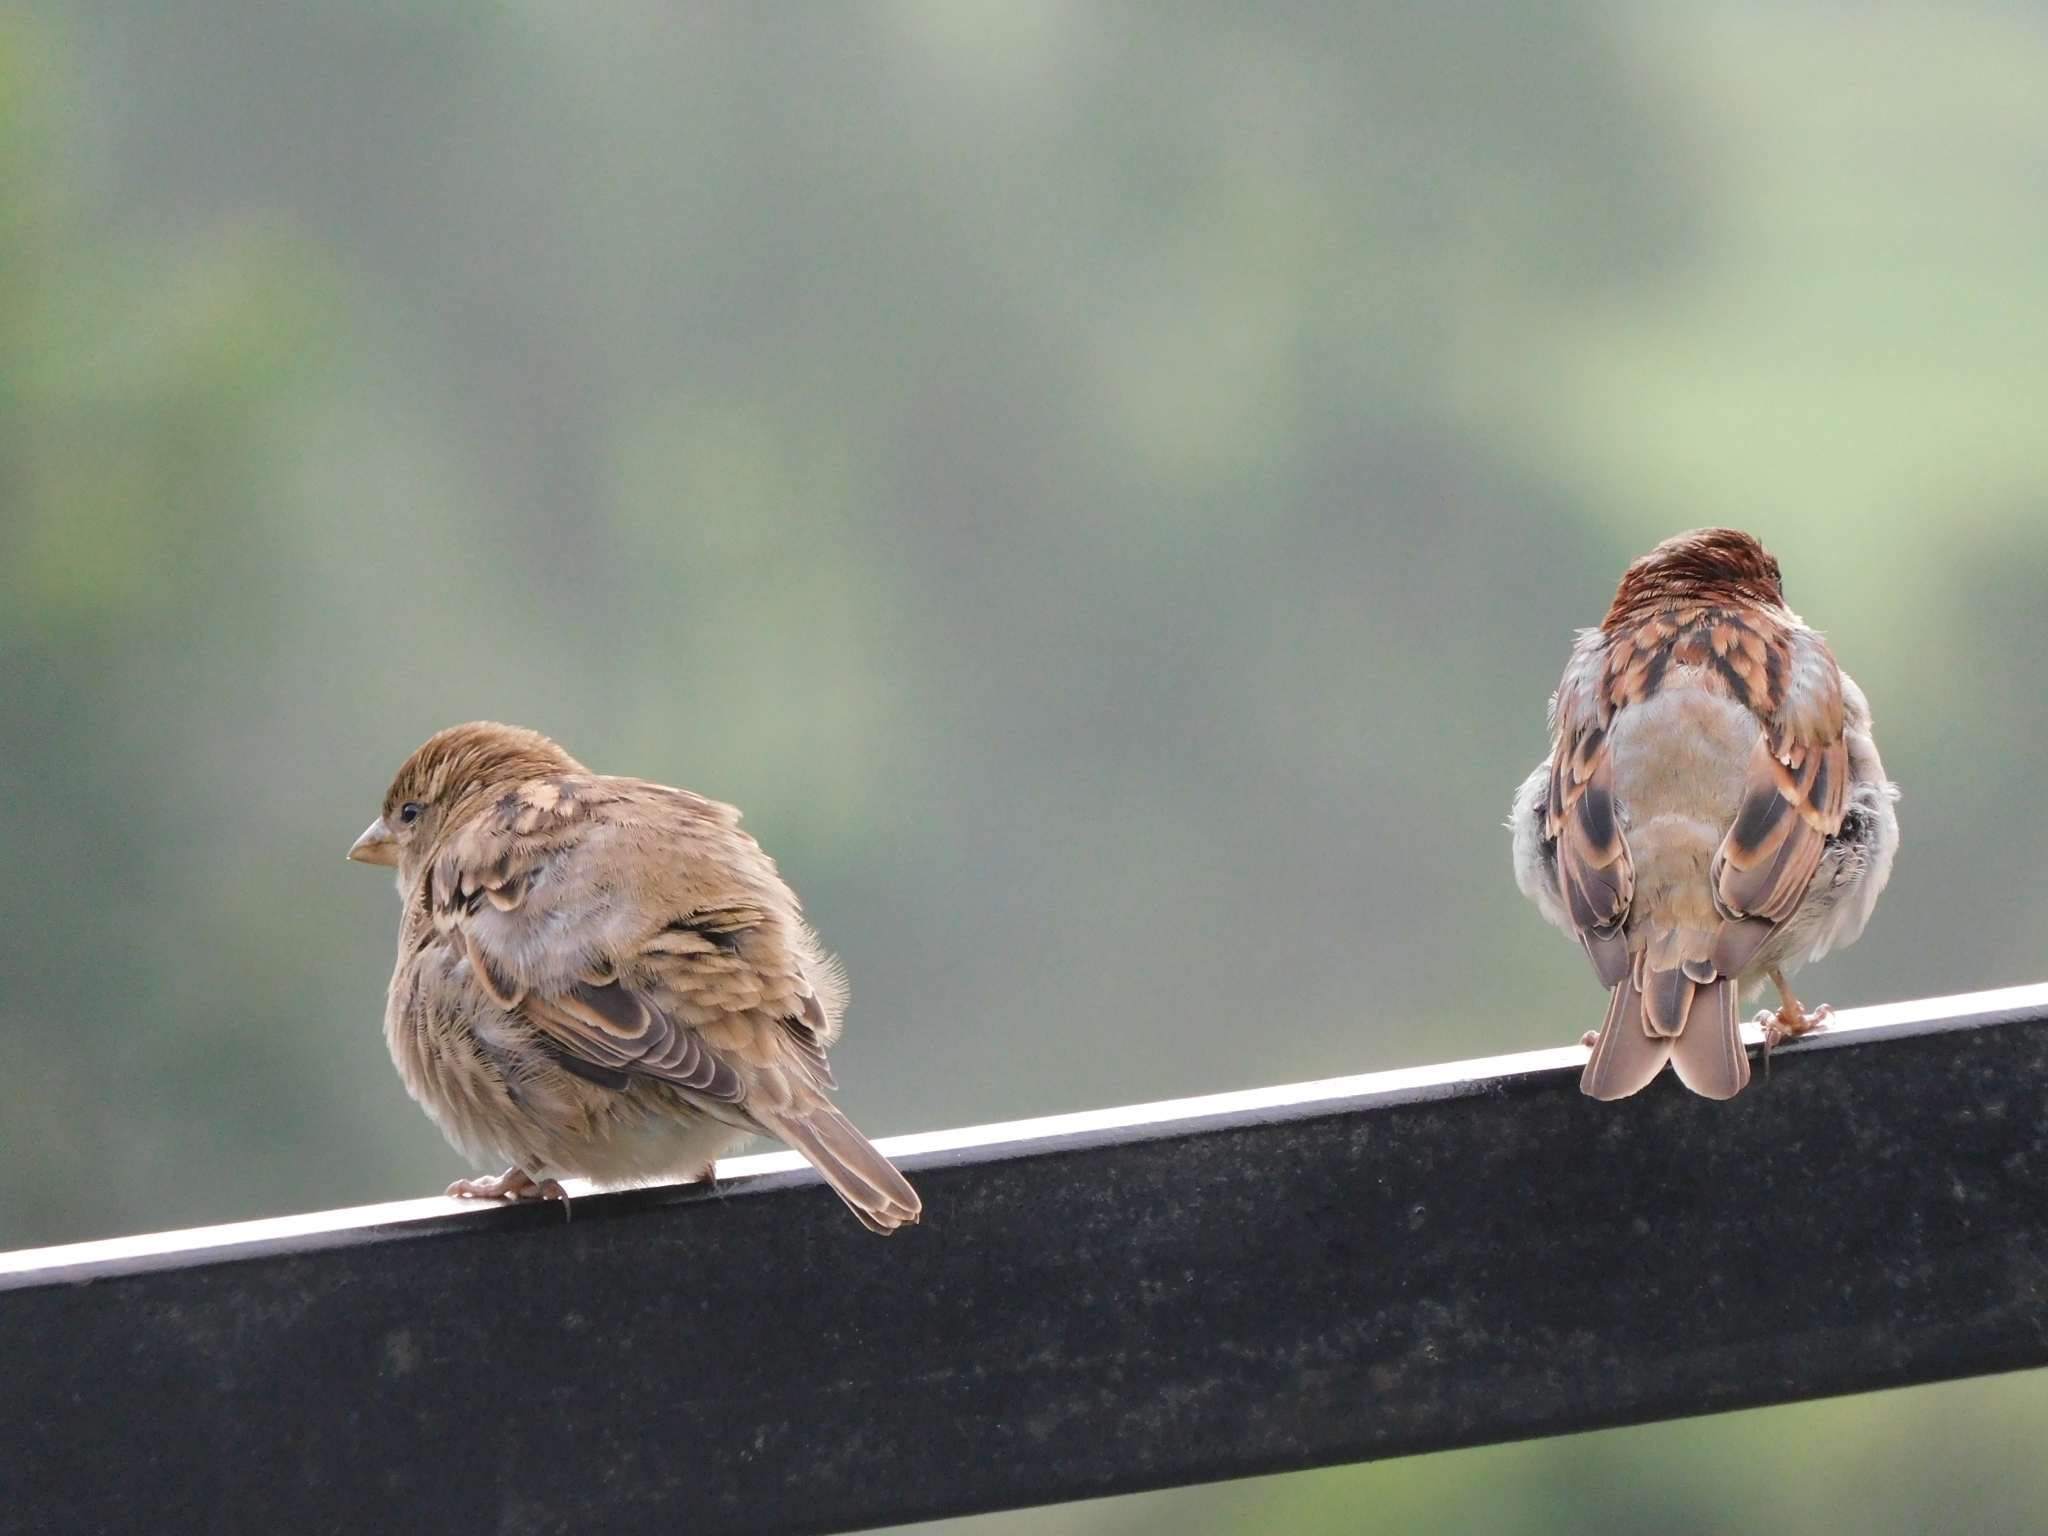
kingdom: Animalia
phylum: Chordata
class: Aves
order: Passeriformes
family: Passeridae
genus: Passer
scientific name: Passer domesticus
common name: House sparrow
